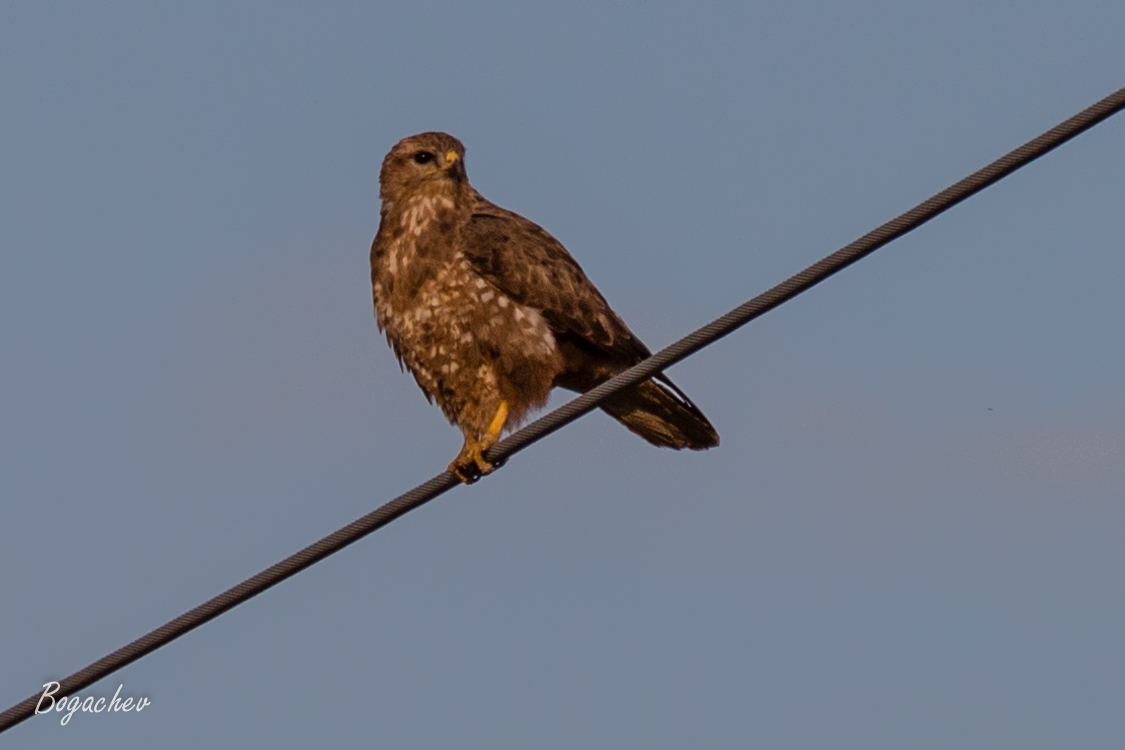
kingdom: Animalia
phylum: Chordata
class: Aves
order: Accipitriformes
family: Accipitridae
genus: Buteo
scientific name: Buteo buteo
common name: Common buzzard
